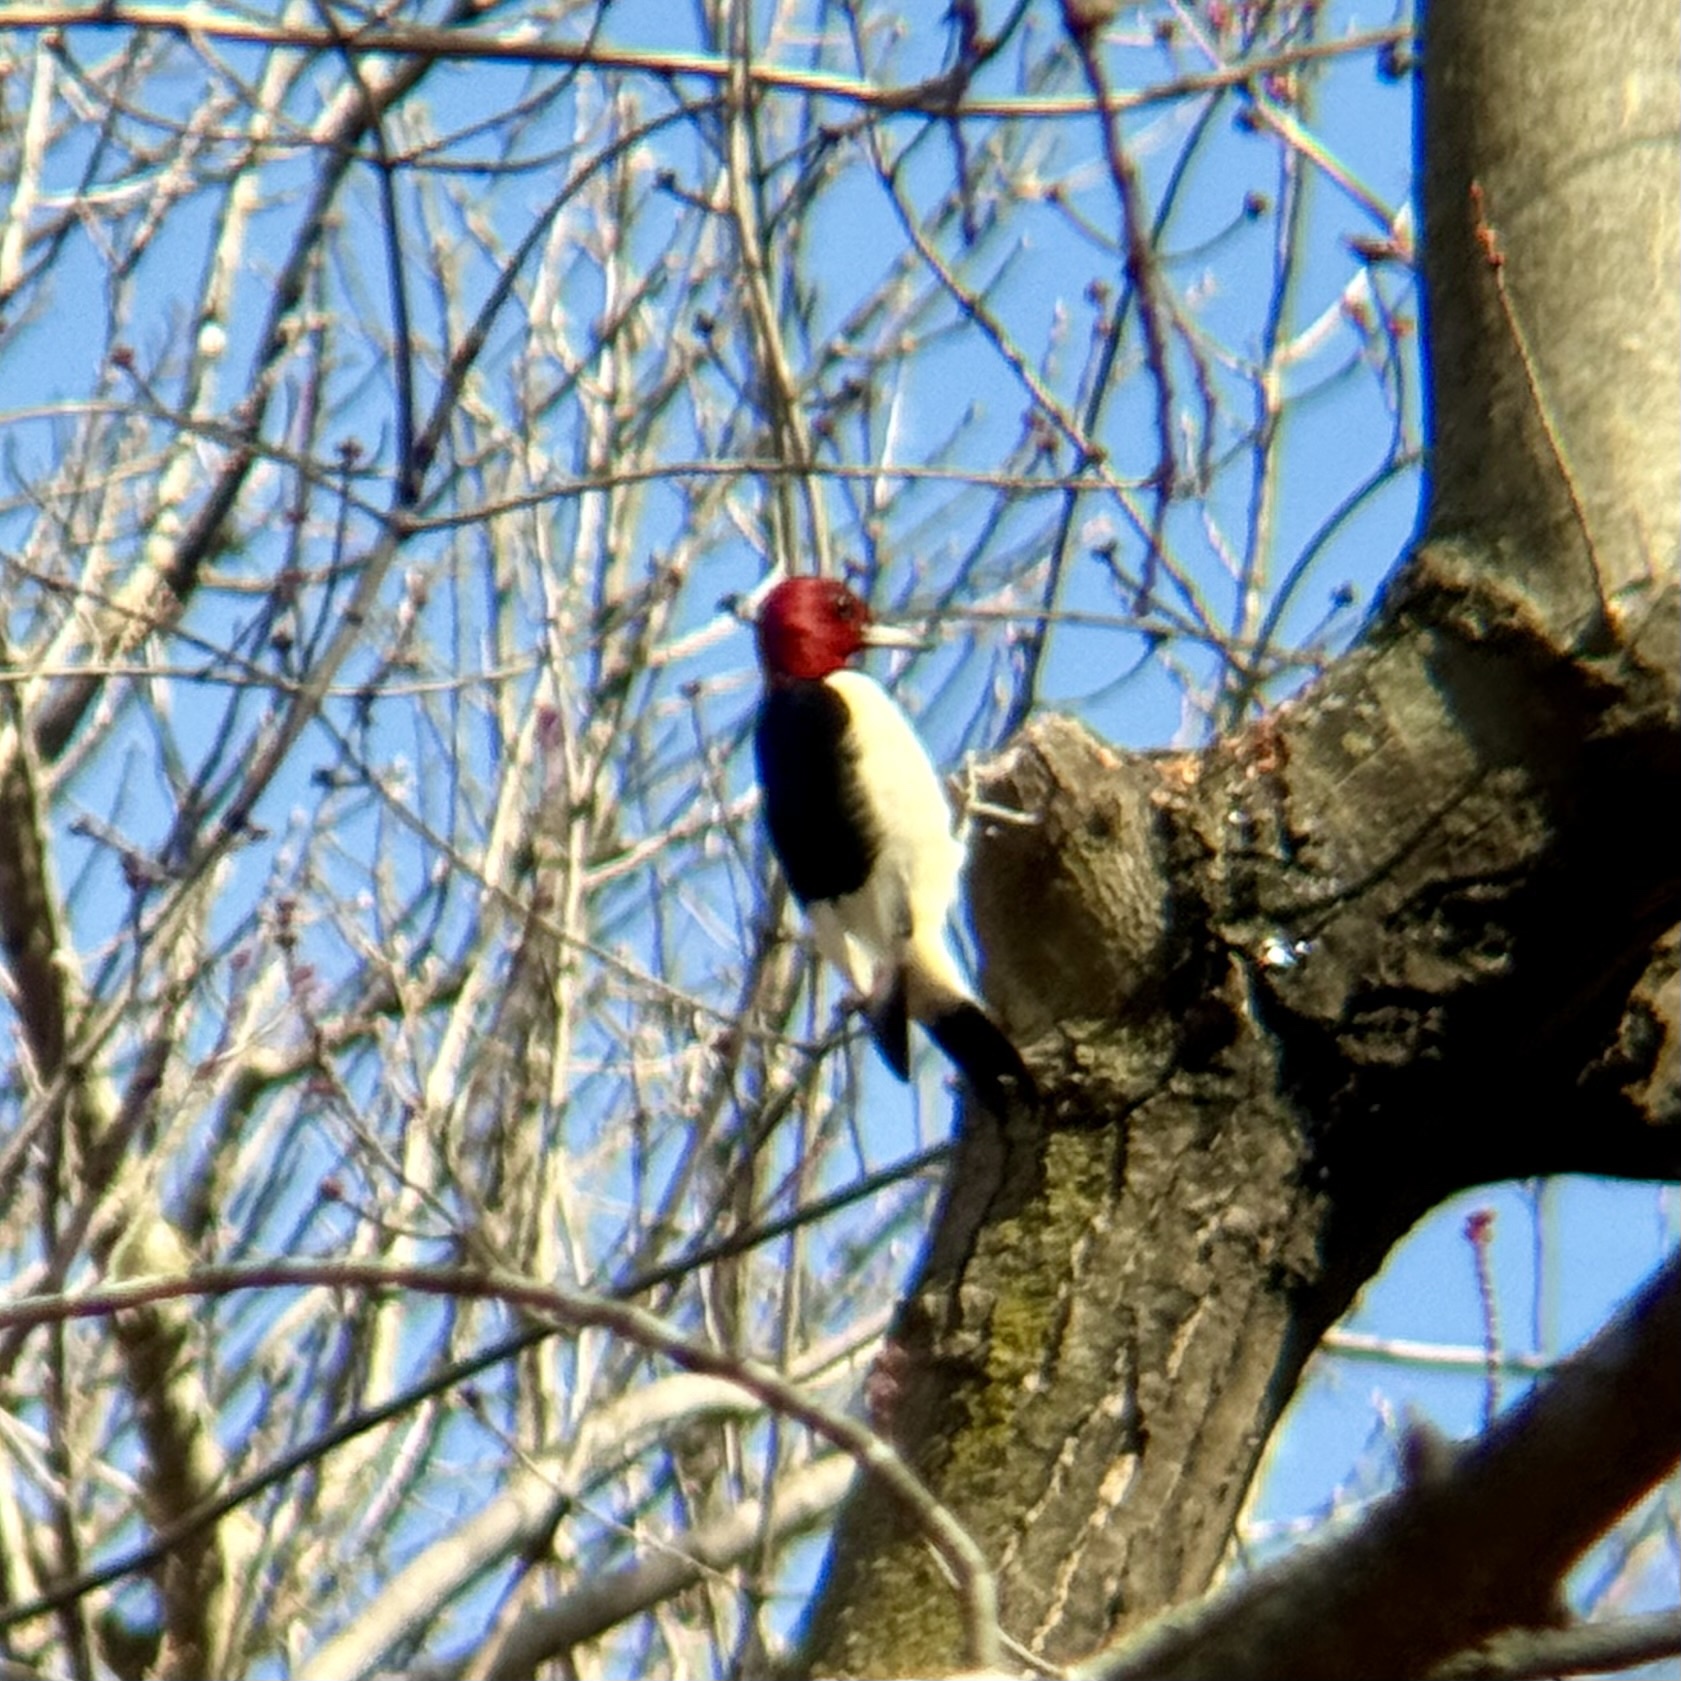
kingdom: Animalia
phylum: Chordata
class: Aves
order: Piciformes
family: Picidae
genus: Melanerpes
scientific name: Melanerpes erythrocephalus
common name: Red-headed woodpecker
